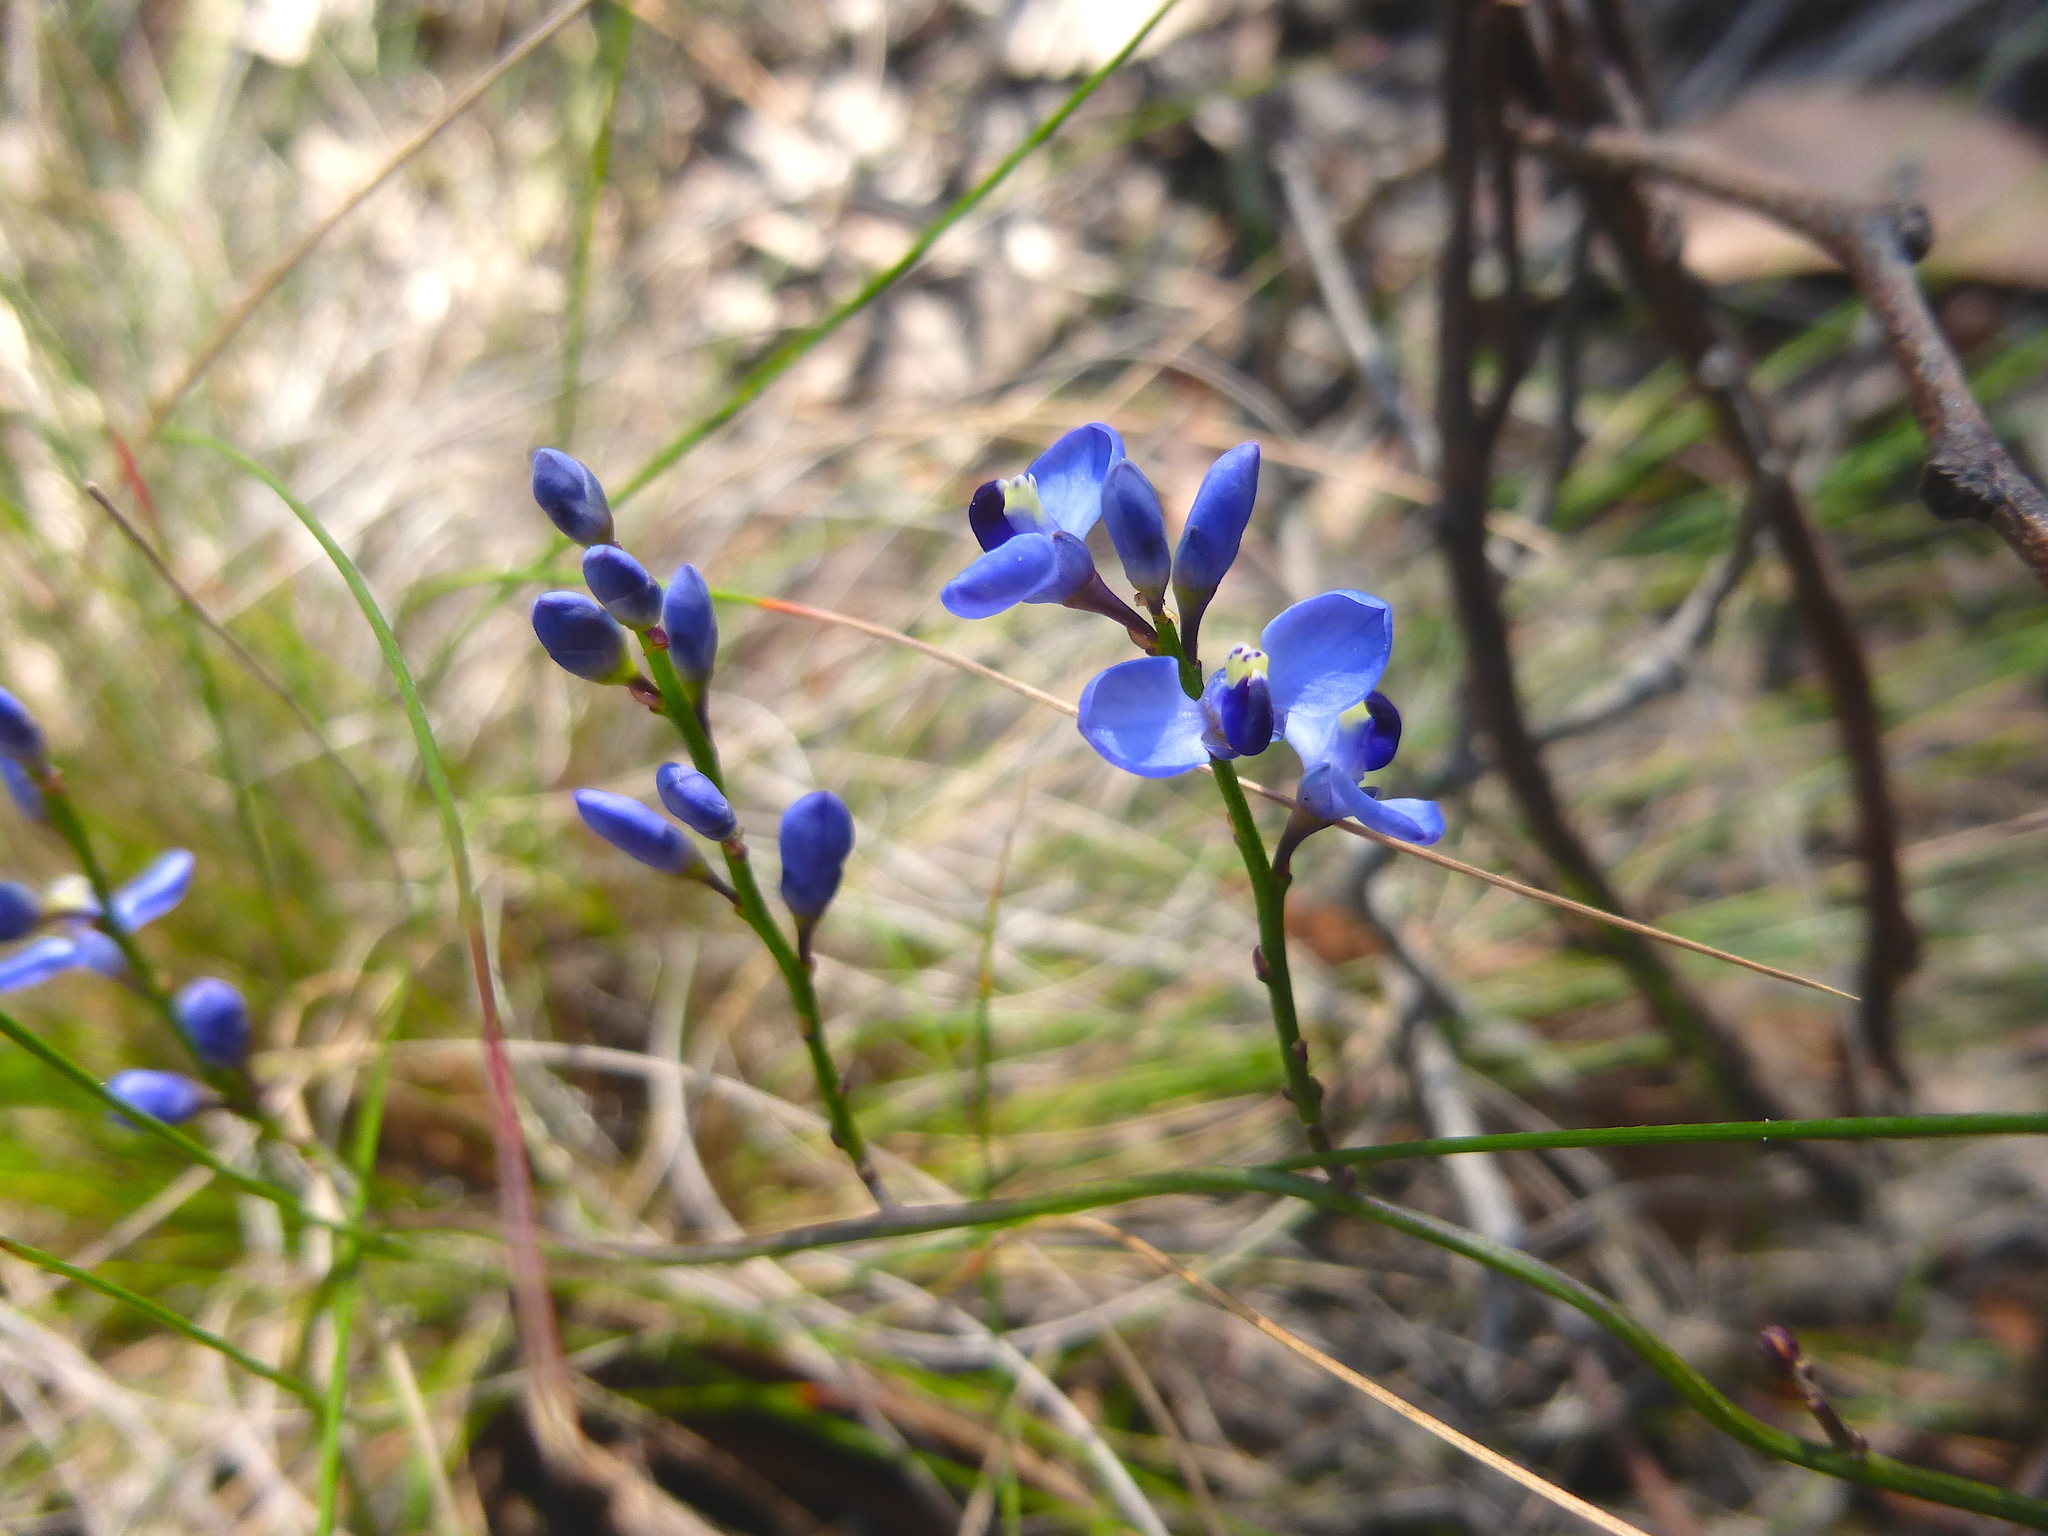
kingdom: Plantae
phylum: Tracheophyta
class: Magnoliopsida
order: Fabales
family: Polygalaceae
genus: Comesperma
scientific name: Comesperma volubile
